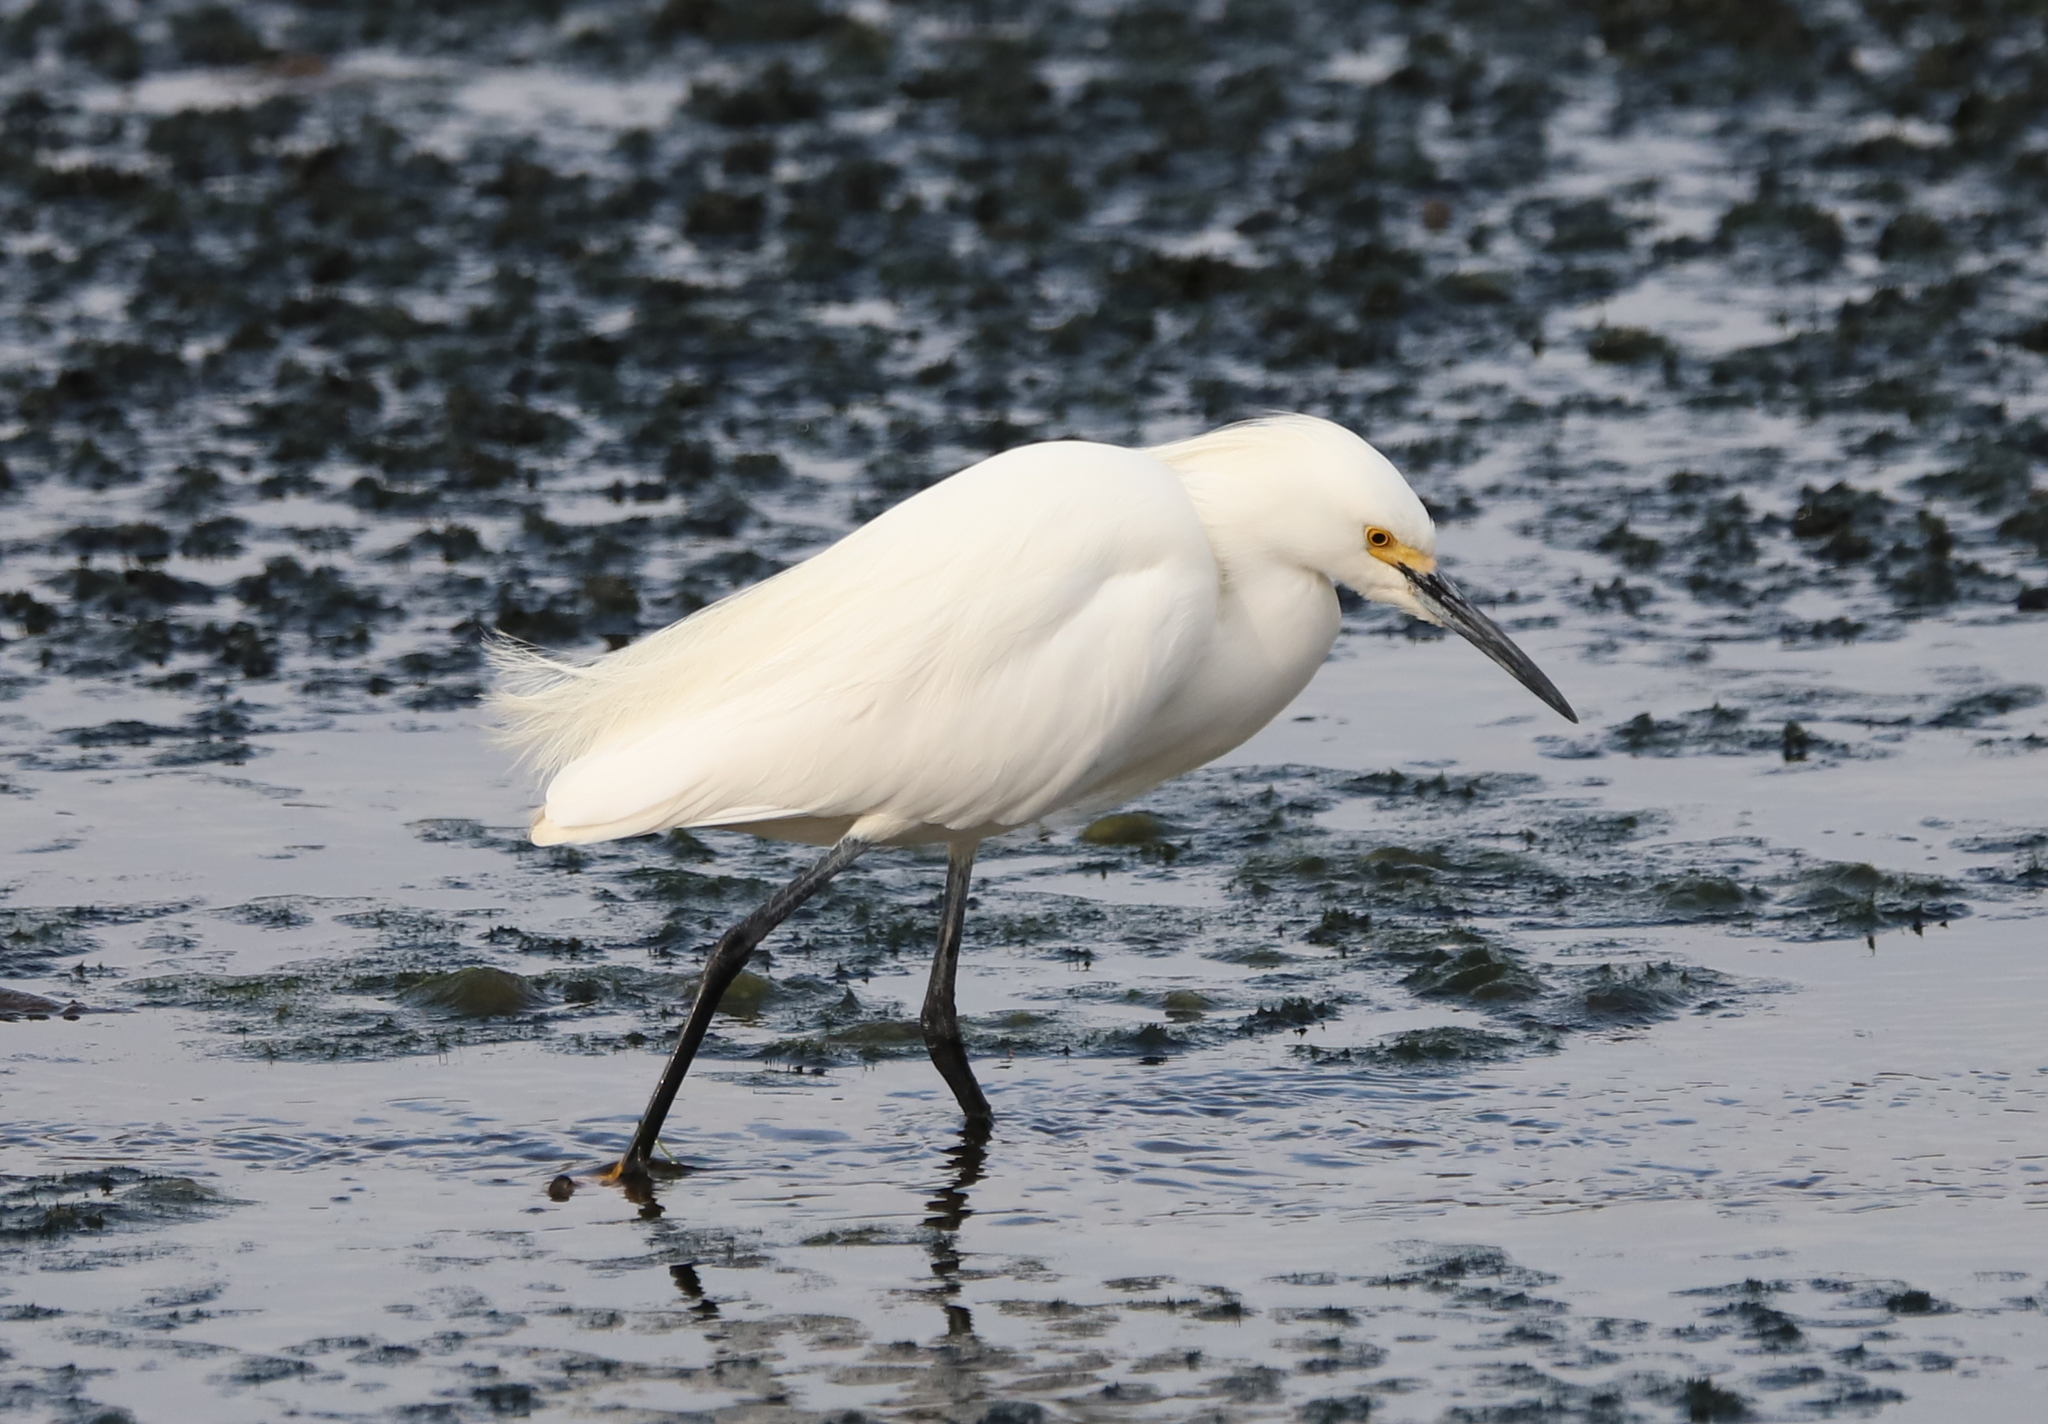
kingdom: Animalia
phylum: Chordata
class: Aves
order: Pelecaniformes
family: Ardeidae
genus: Egretta
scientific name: Egretta thula
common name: Snowy egret
